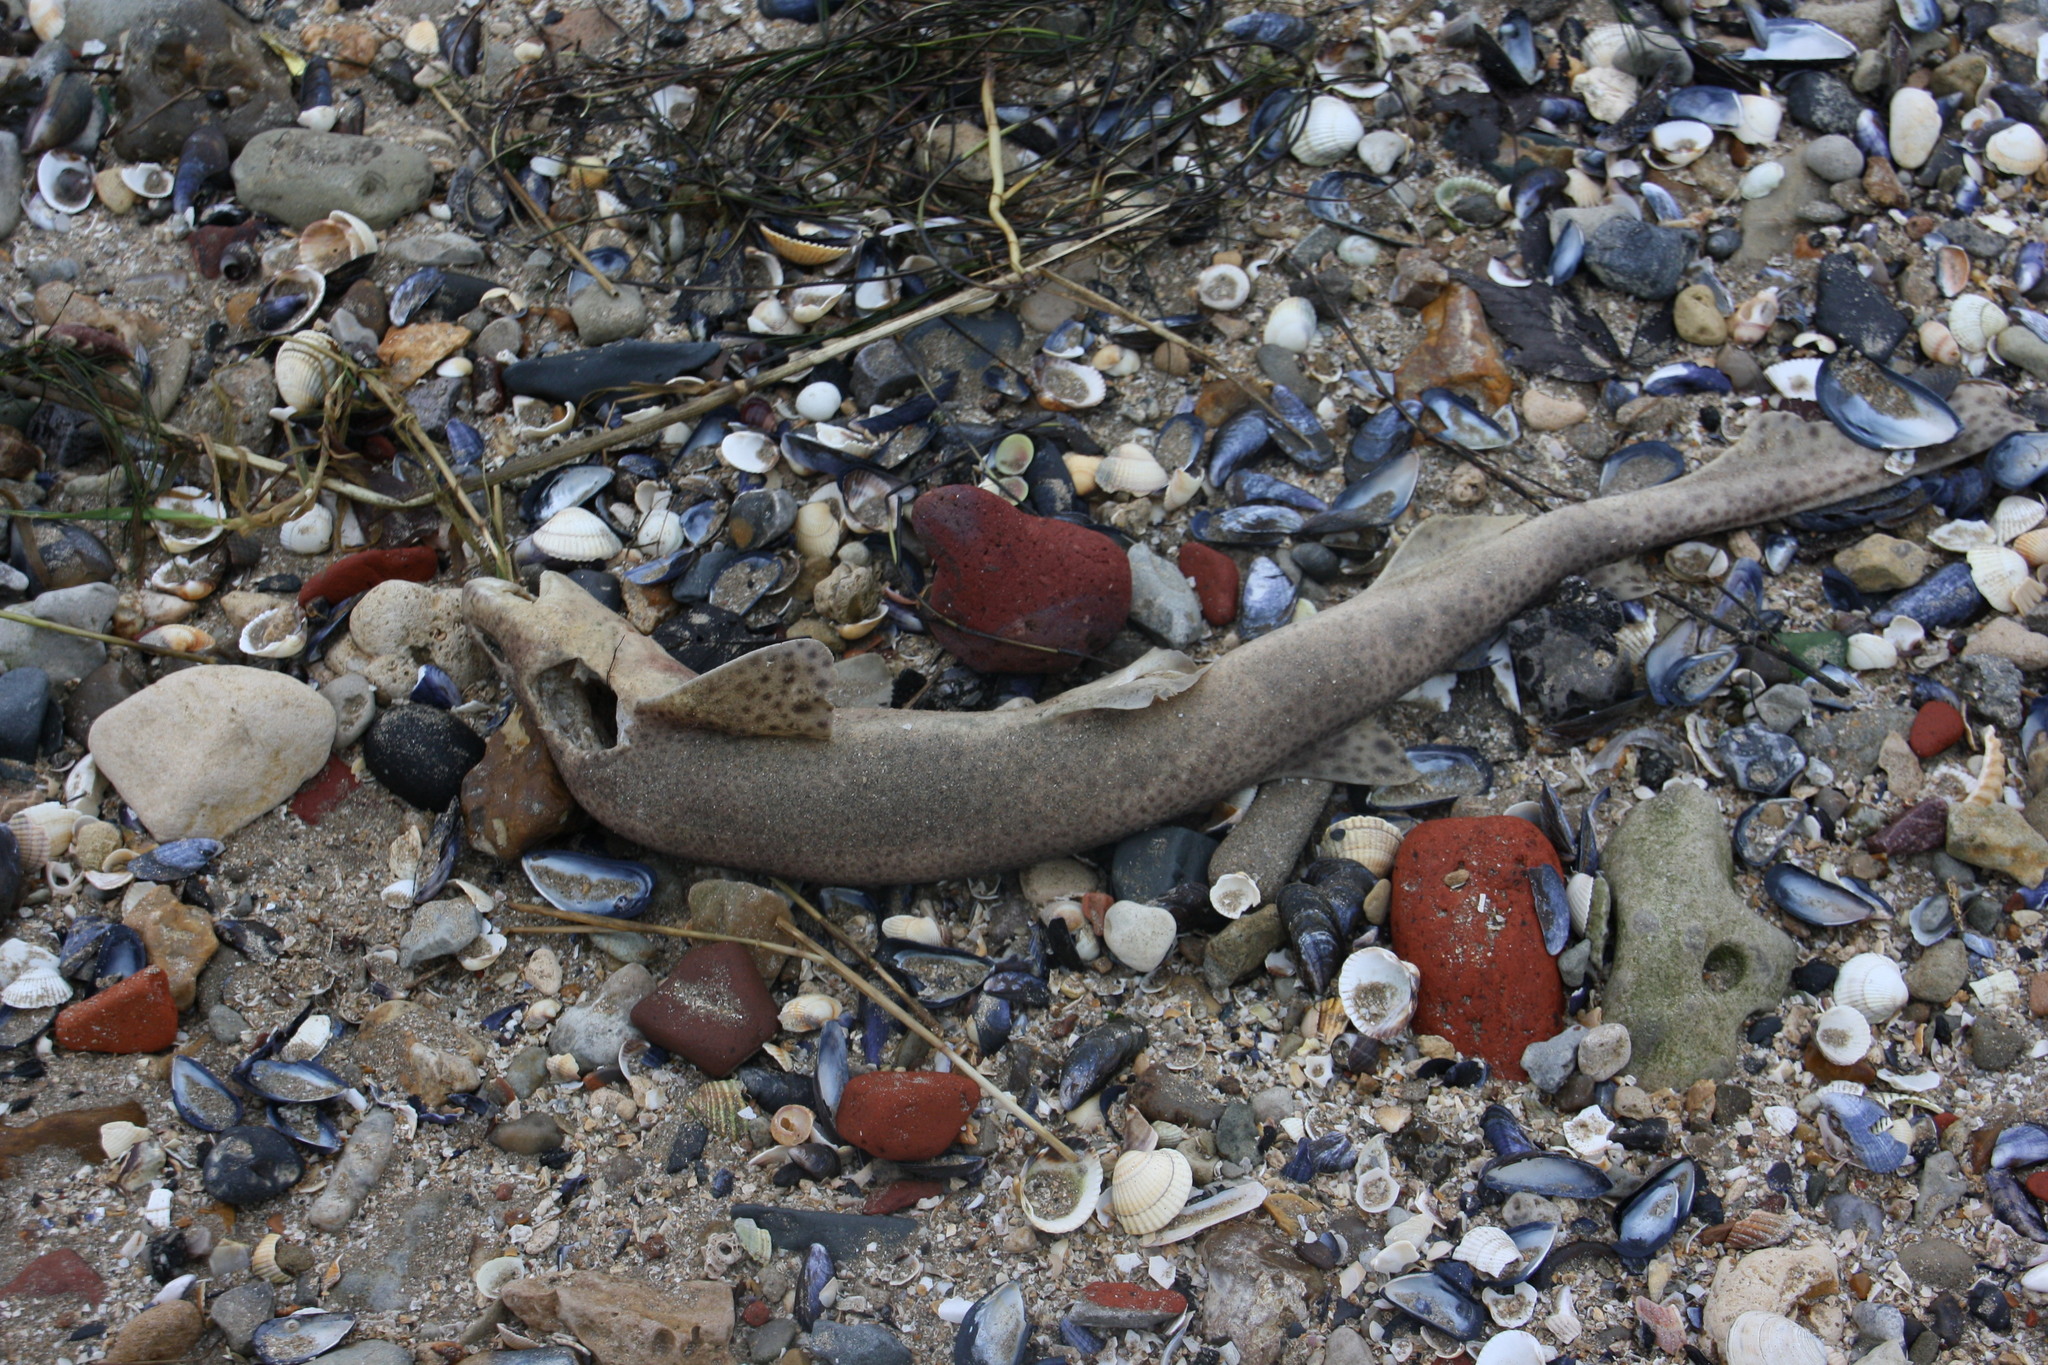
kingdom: Animalia
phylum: Chordata
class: Elasmobranchii
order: Carcharhiniformes
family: Scyliorhinidae
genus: Scyliorhinus
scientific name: Scyliorhinus canicula
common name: Lesser spotted dogfish
